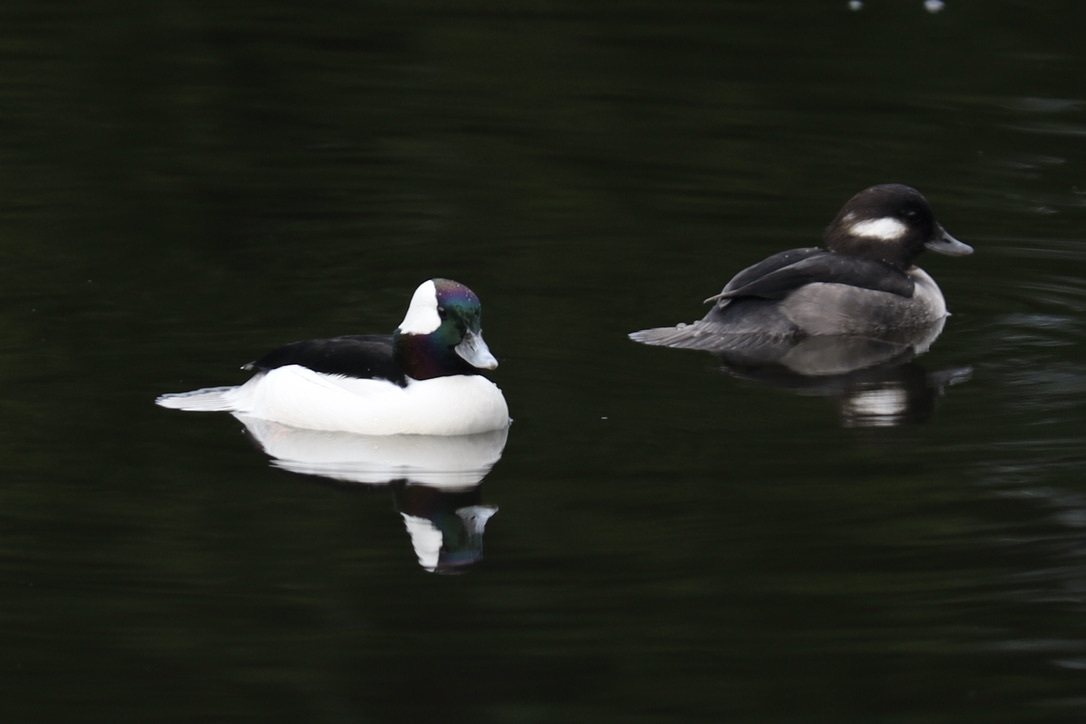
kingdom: Animalia
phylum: Chordata
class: Aves
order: Anseriformes
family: Anatidae
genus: Bucephala
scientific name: Bucephala albeola
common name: Bufflehead
